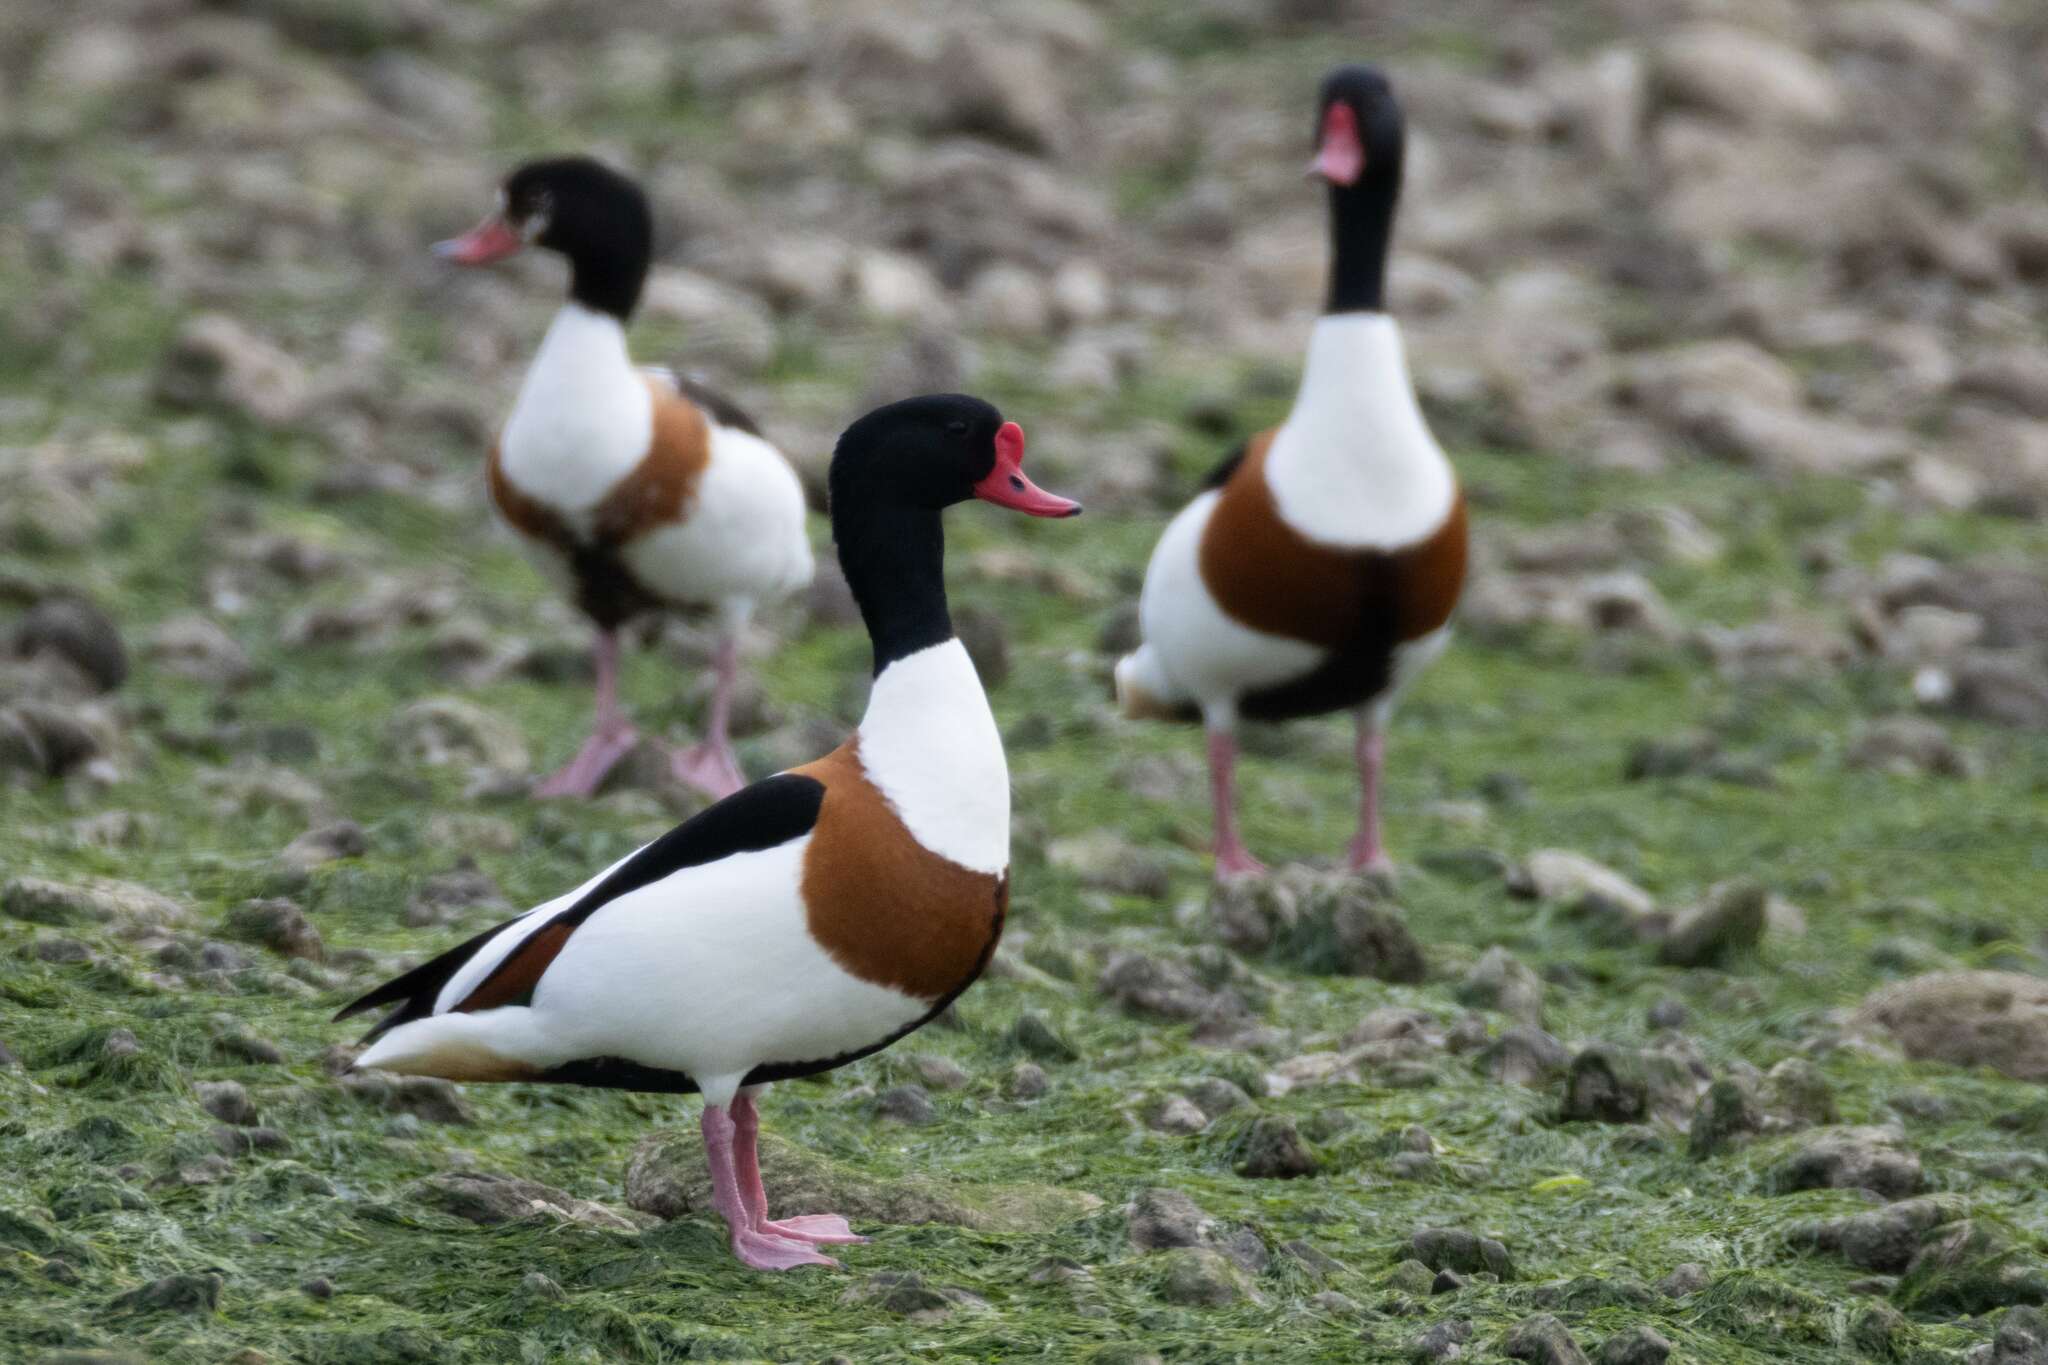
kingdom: Animalia
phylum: Chordata
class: Aves
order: Anseriformes
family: Anatidae
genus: Tadorna
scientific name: Tadorna tadorna
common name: Common shelduck
